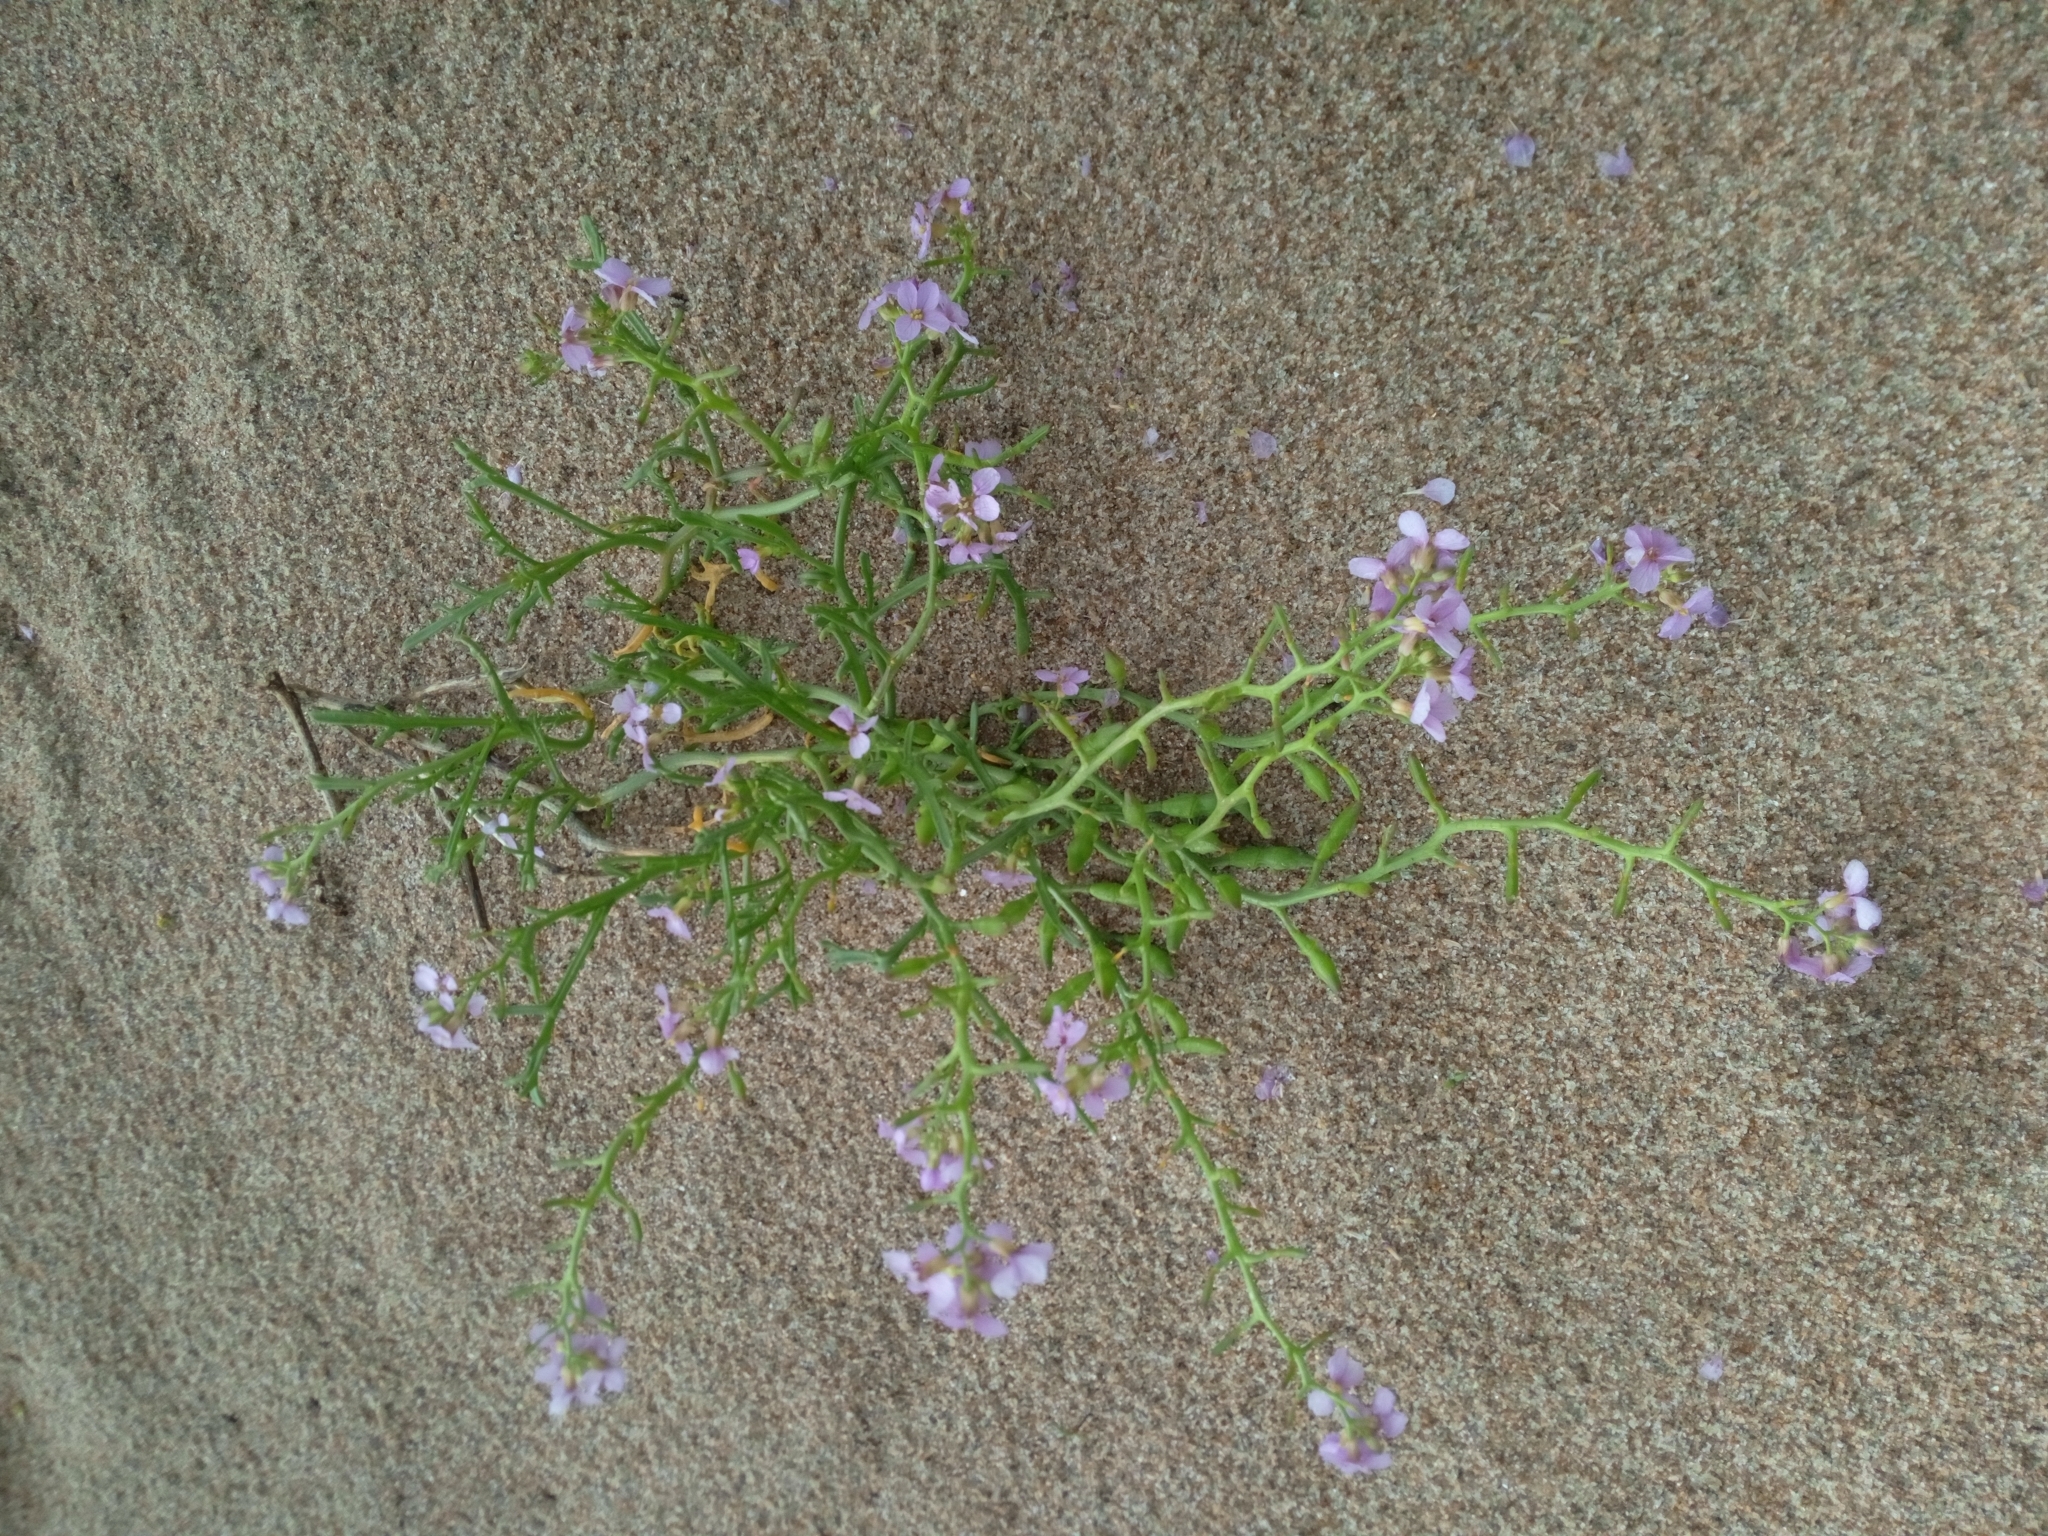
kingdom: Plantae
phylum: Tracheophyta
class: Magnoliopsida
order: Brassicales
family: Brassicaceae
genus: Cakile
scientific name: Cakile maritima
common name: Sea rocket
